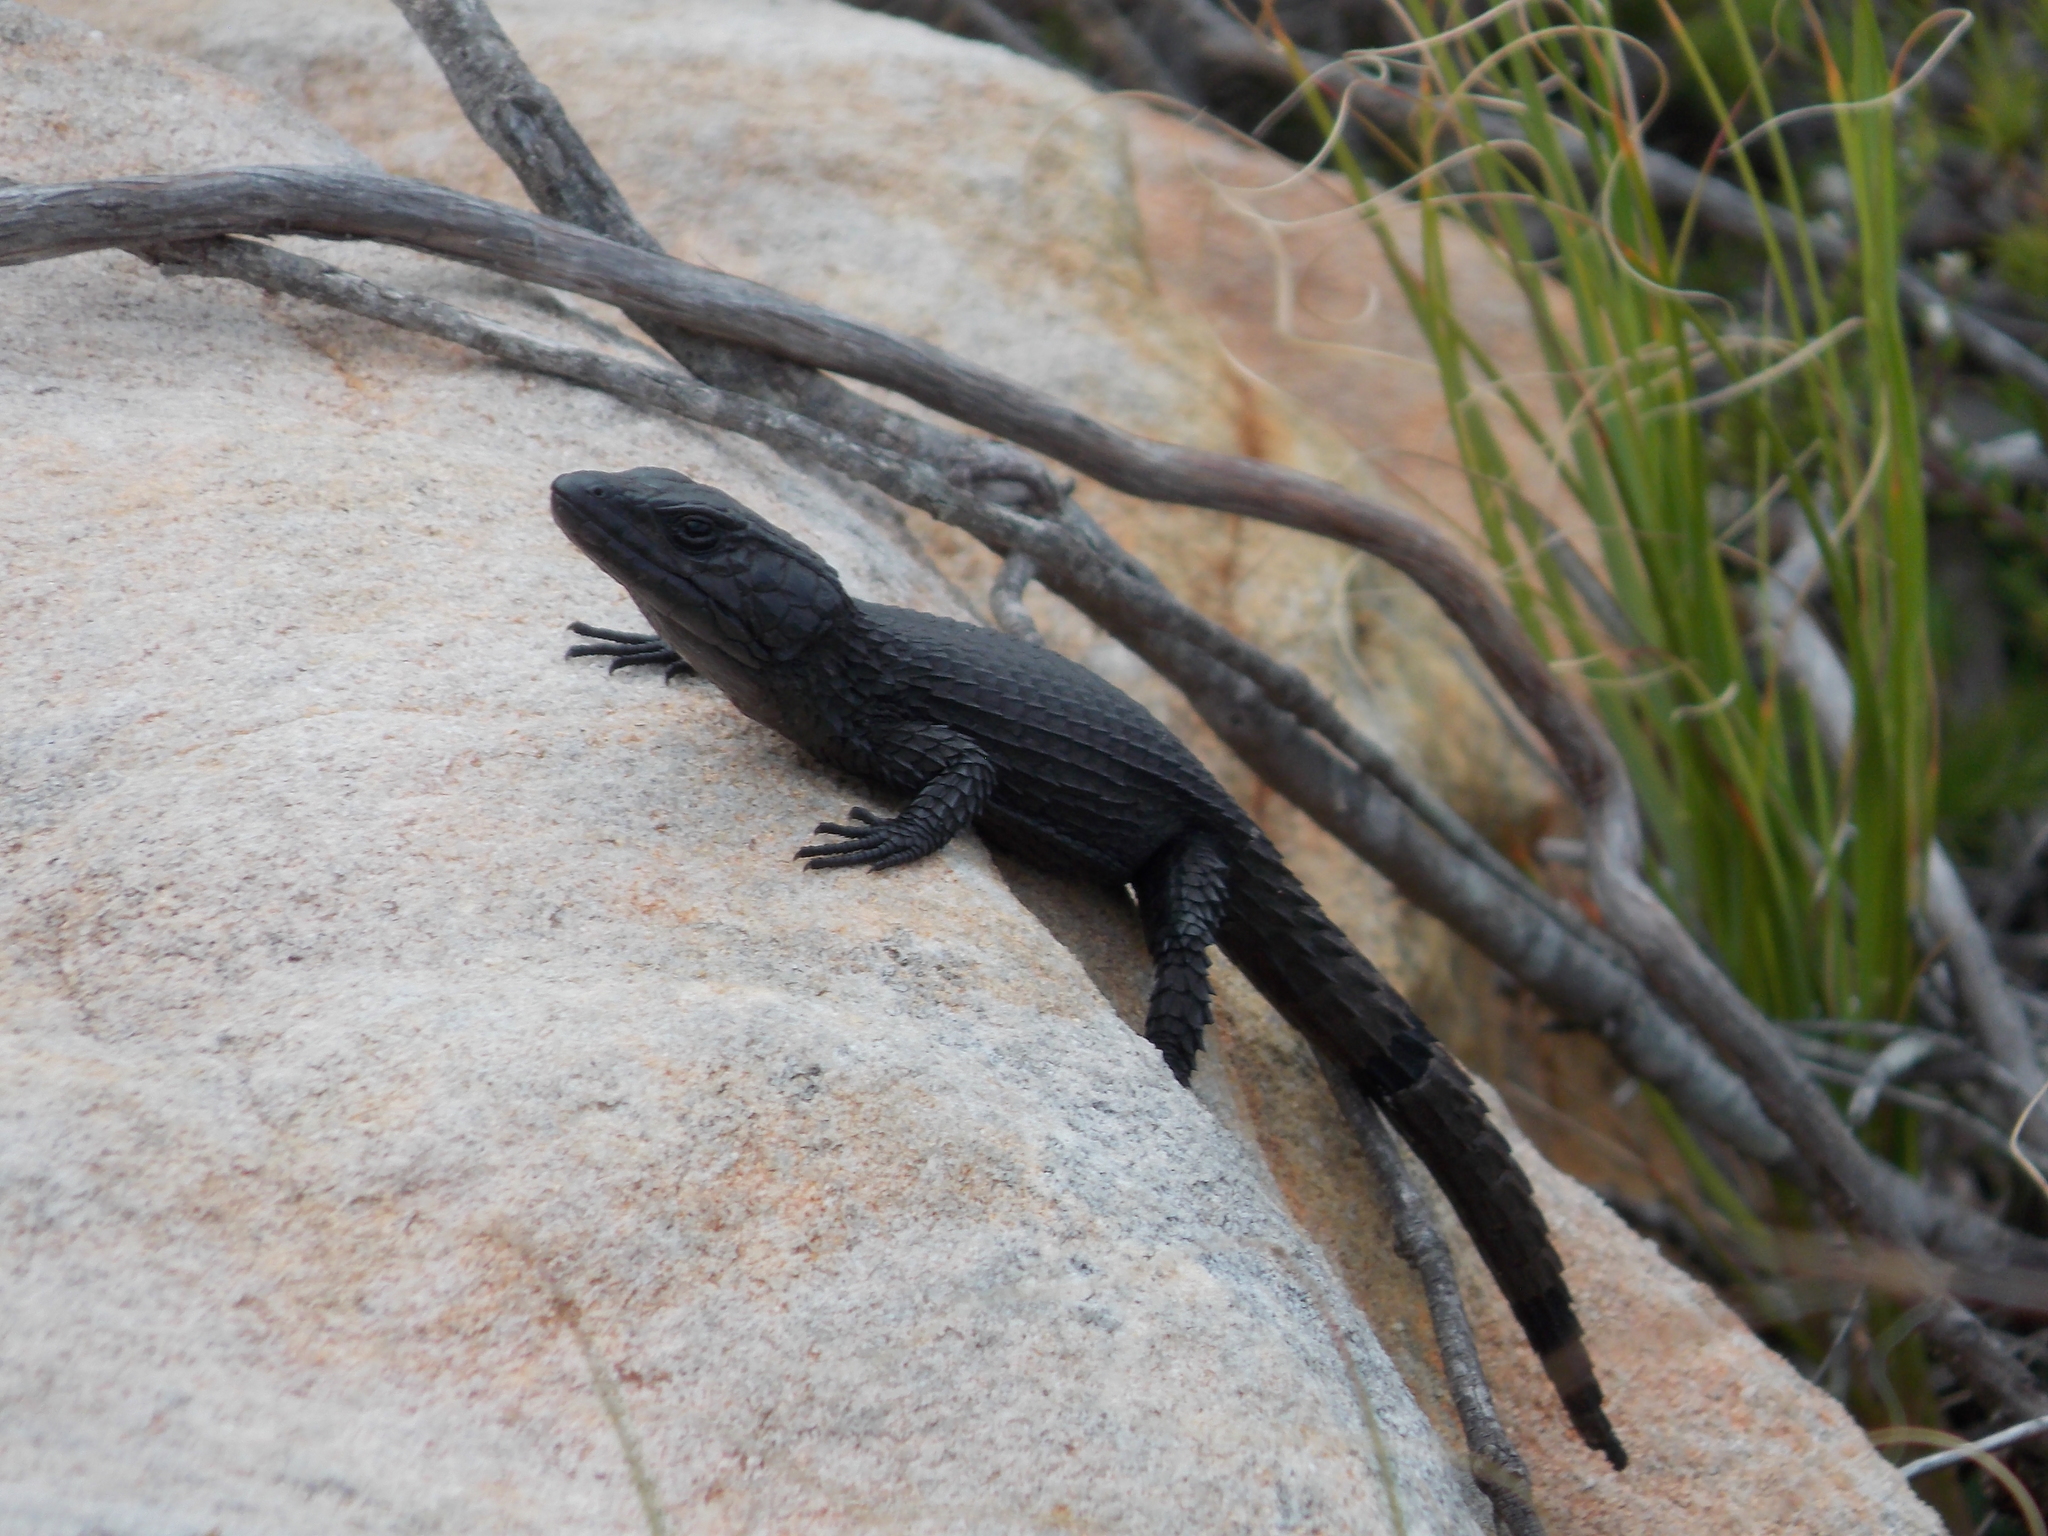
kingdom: Animalia
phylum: Chordata
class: Squamata
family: Cordylidae
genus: Cordylus
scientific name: Cordylus niger
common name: Black girdled lizard
